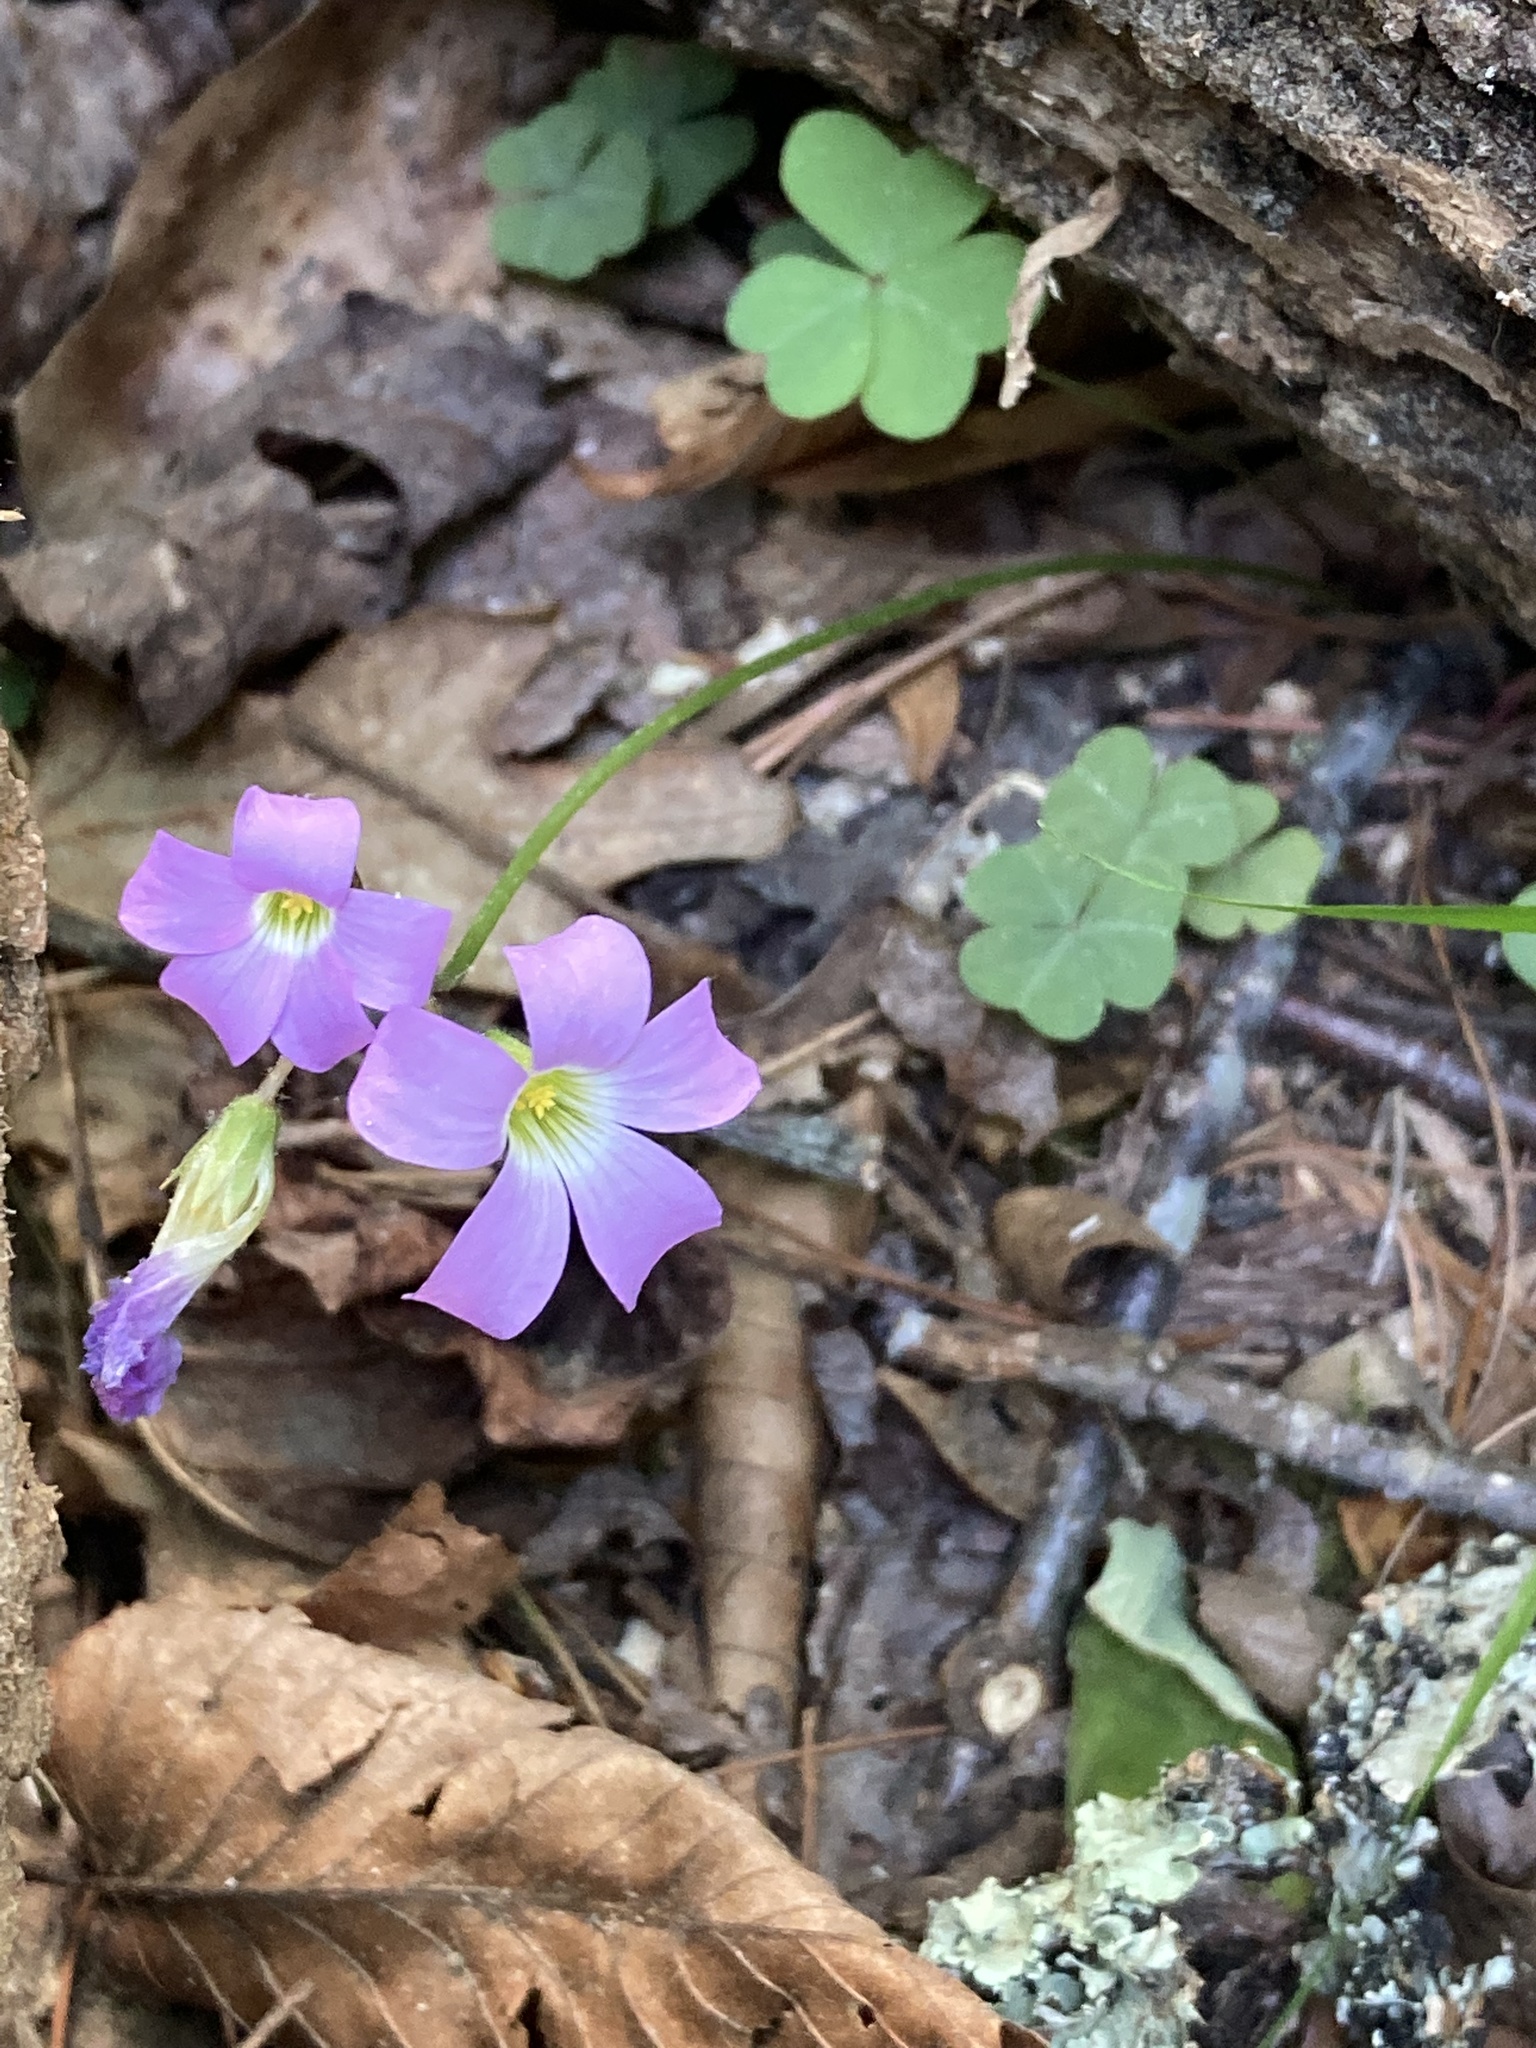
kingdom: Plantae
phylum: Tracheophyta
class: Magnoliopsida
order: Oxalidales
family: Oxalidaceae
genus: Oxalis
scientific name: Oxalis violacea
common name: Violet wood-sorrel
